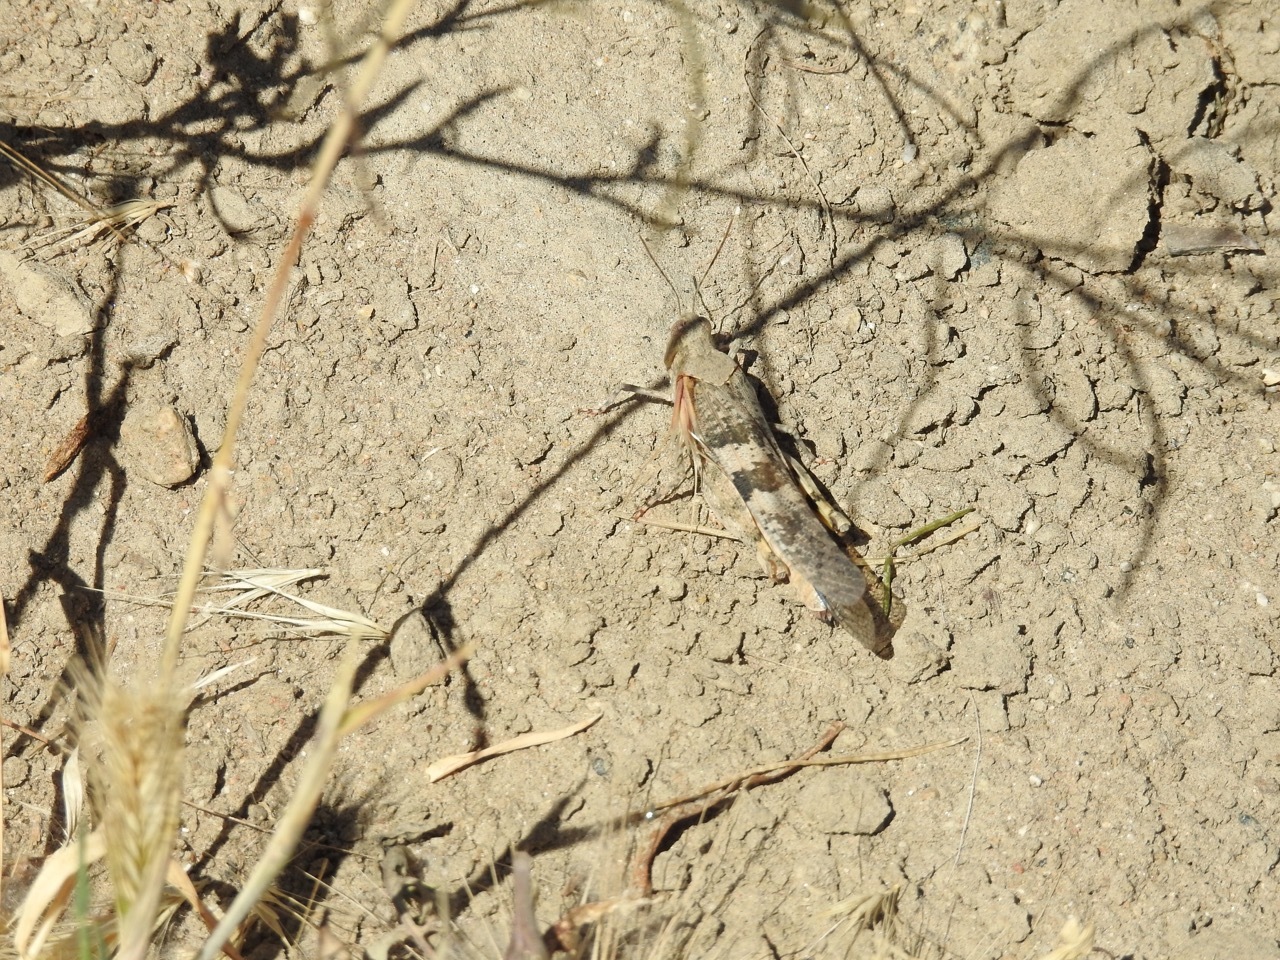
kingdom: Animalia
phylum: Arthropoda
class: Insecta
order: Orthoptera
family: Acrididae
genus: Trimerotropis
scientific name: Trimerotropis pallidipennis
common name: Pallid-winged grasshopper
